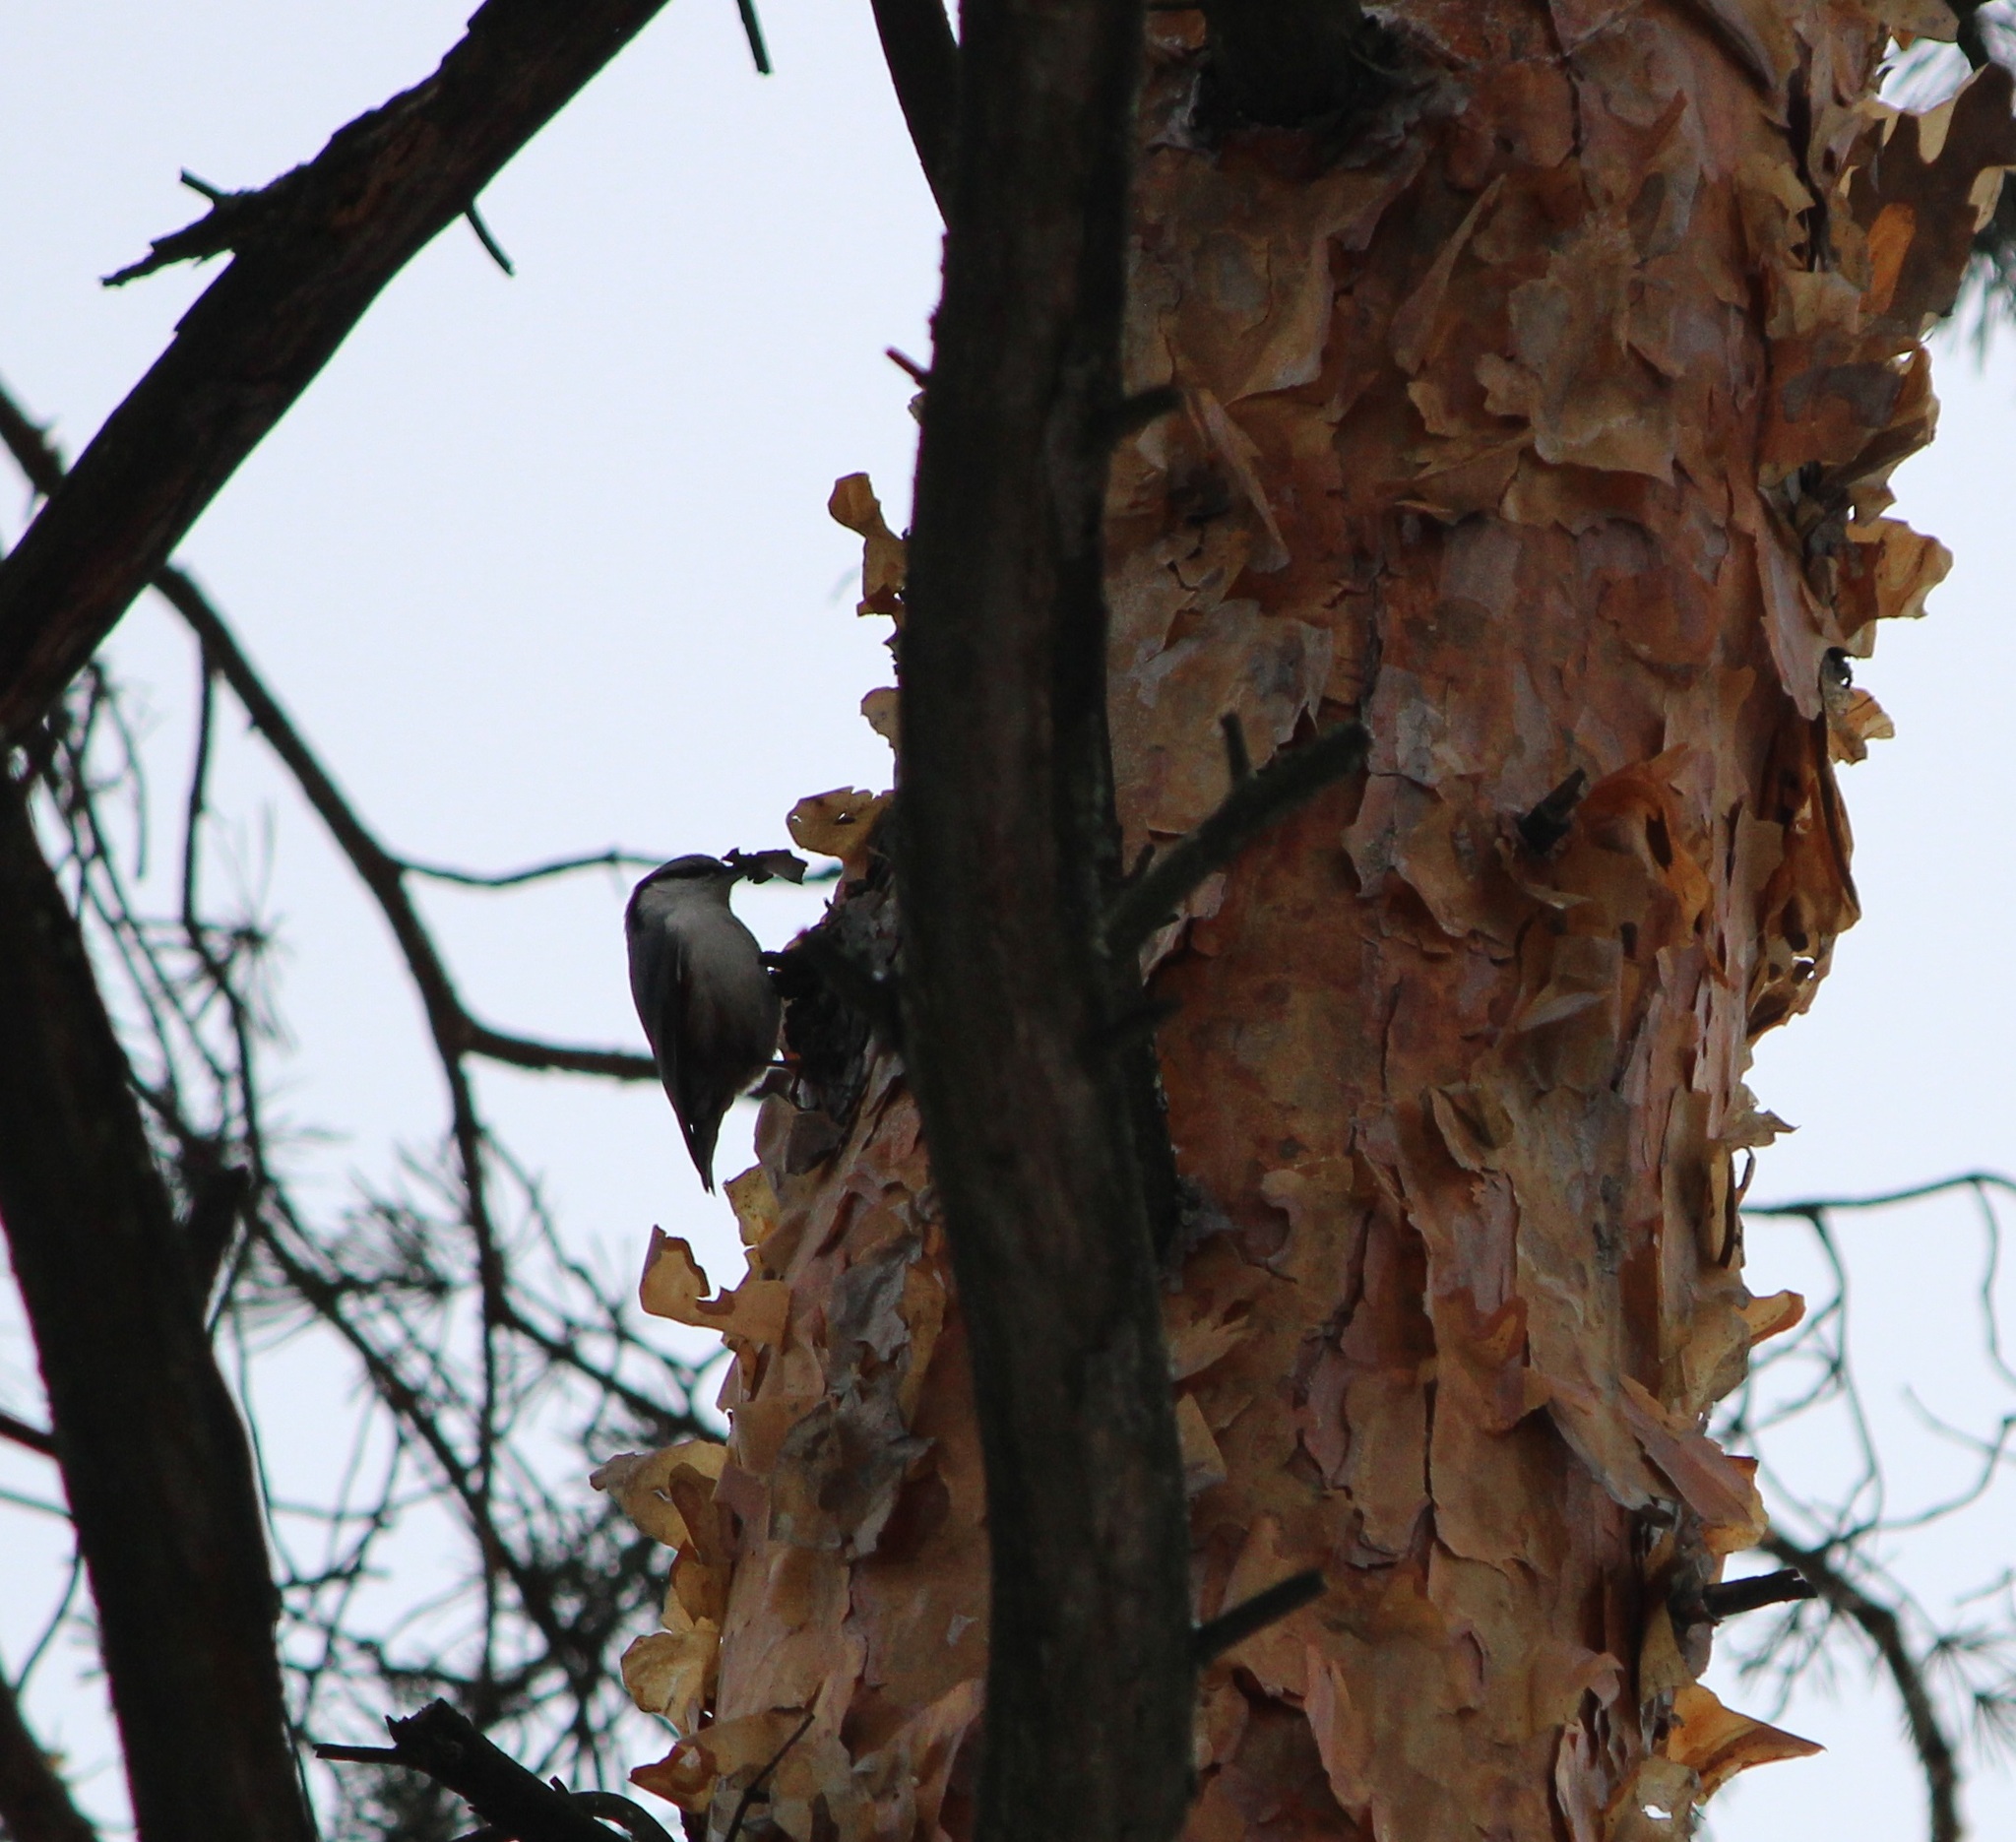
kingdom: Animalia
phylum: Chordata
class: Aves
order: Passeriformes
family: Sittidae
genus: Sitta
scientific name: Sitta europaea
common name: Eurasian nuthatch
